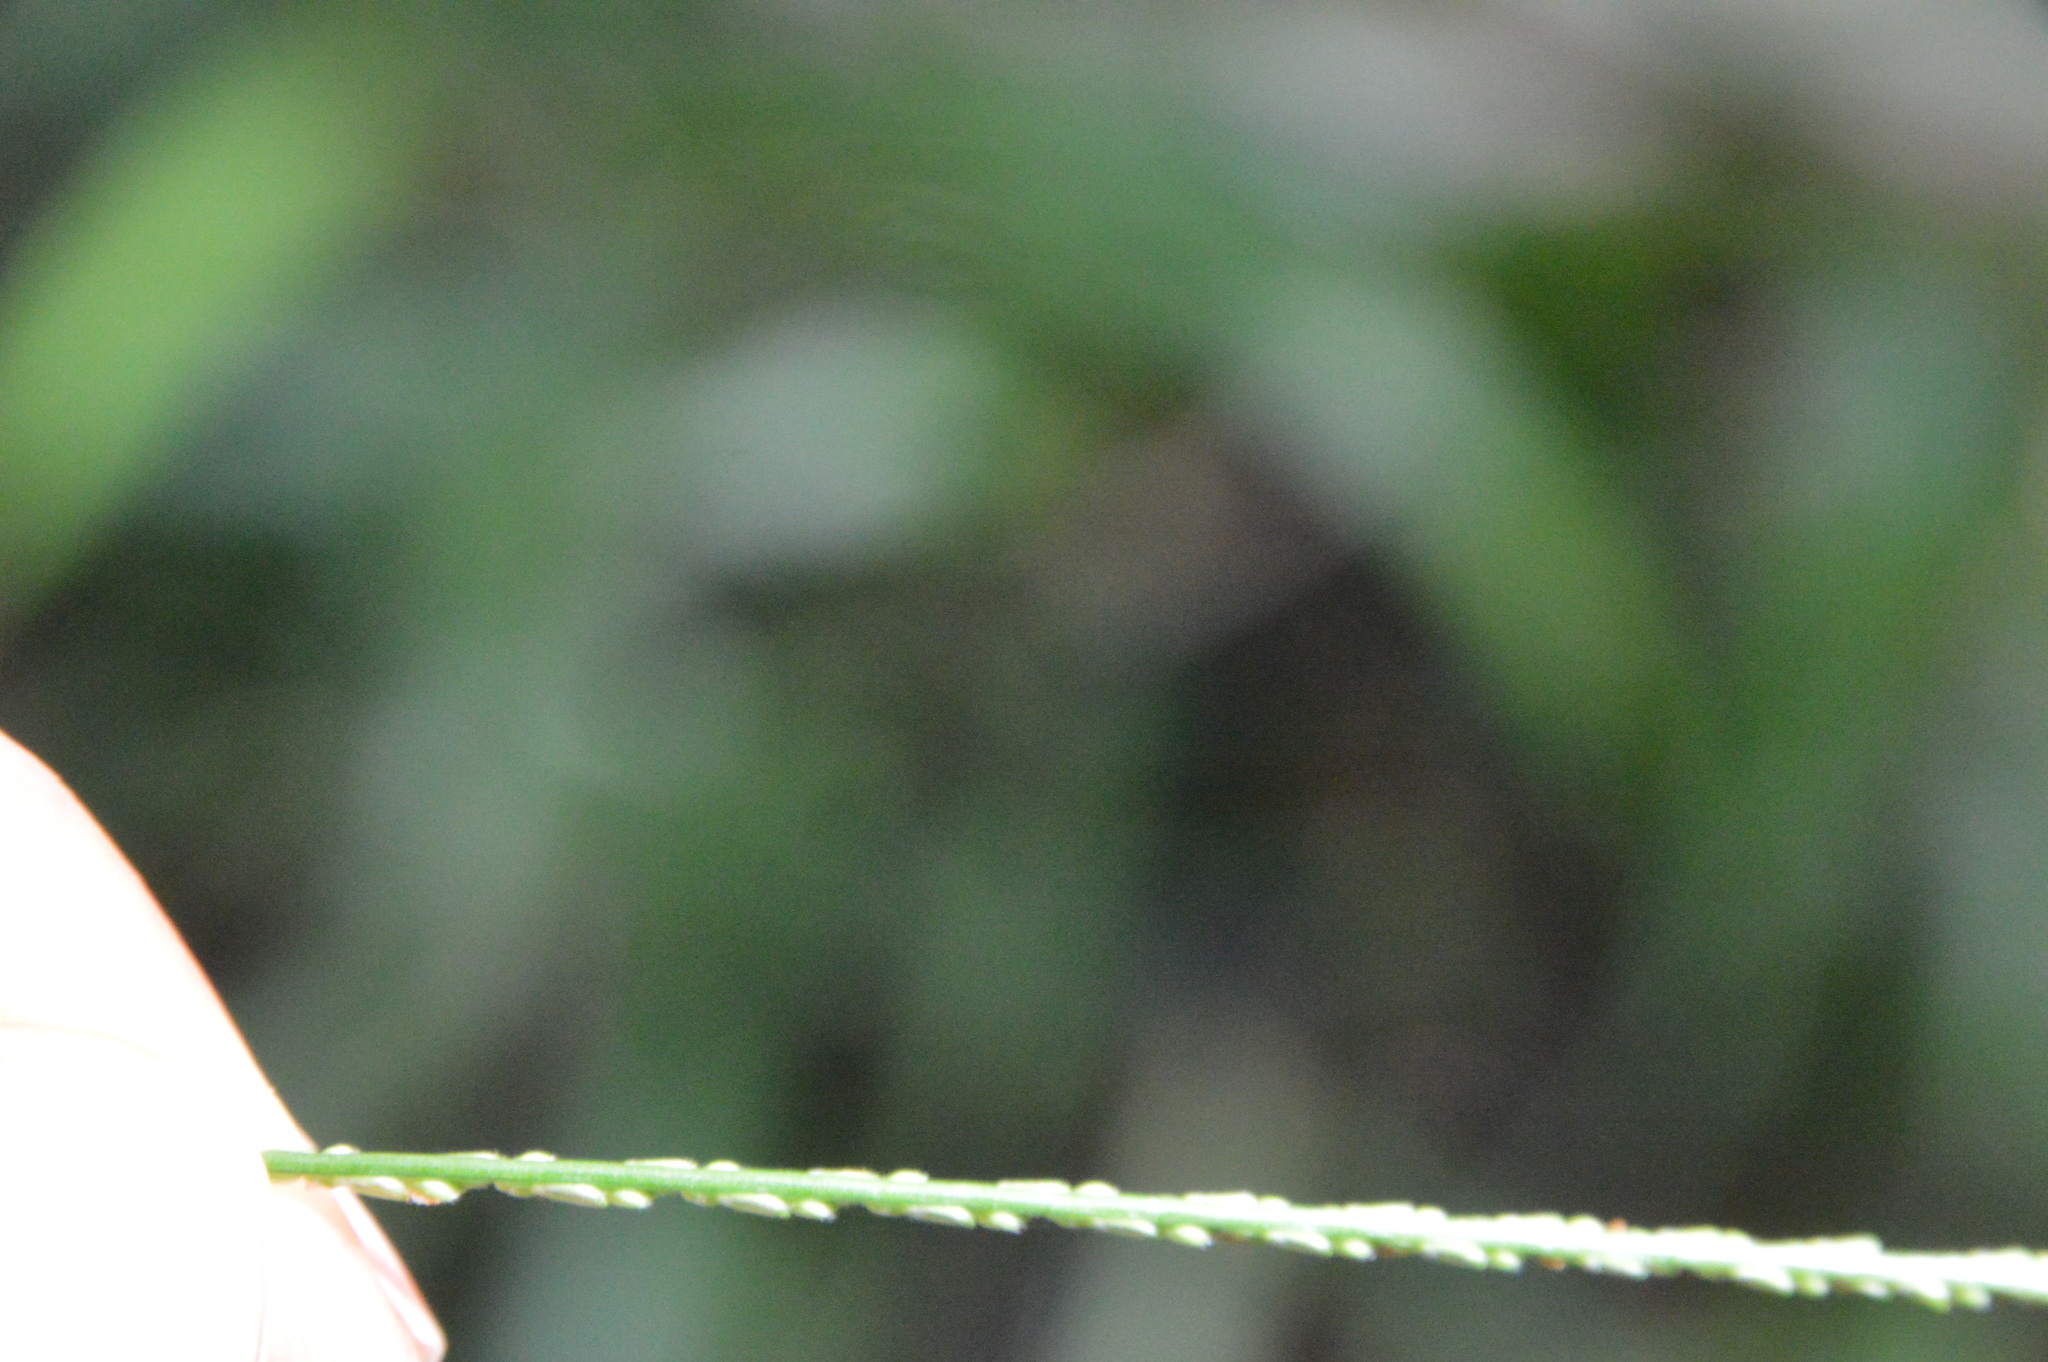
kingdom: Plantae
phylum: Tracheophyta
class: Liliopsida
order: Poales
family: Poaceae
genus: Paspalum
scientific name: Paspalum langei
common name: Rusty-seed paspalum
